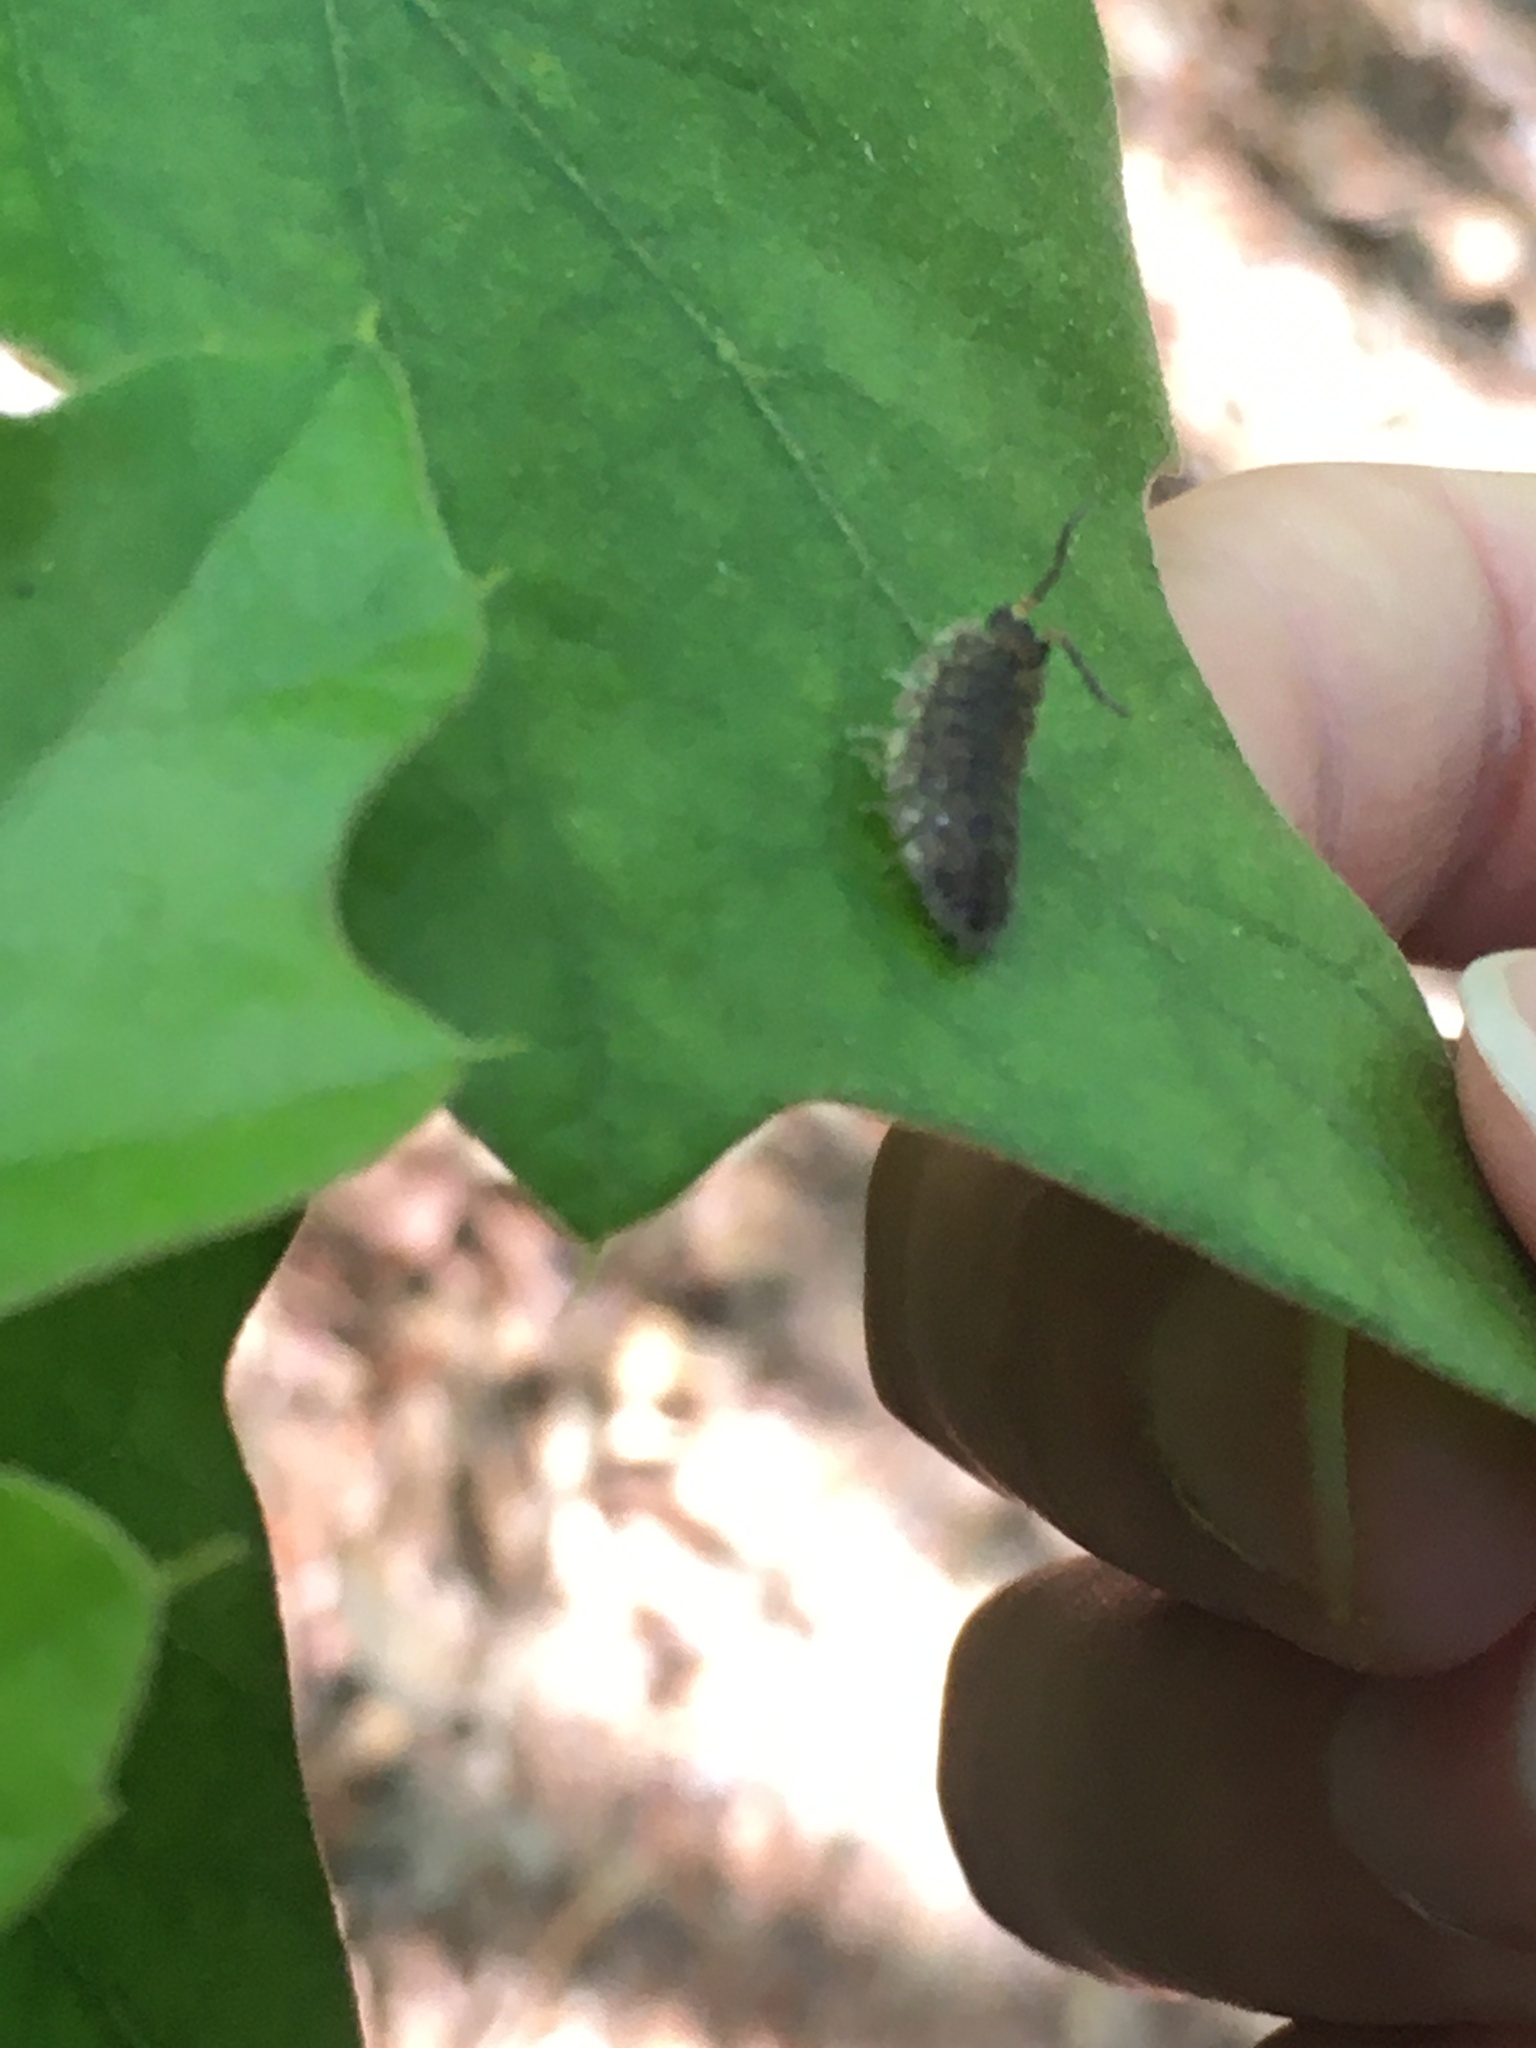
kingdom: Animalia
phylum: Arthropoda
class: Malacostraca
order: Isopoda
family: Porcellionidae
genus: Porcellio
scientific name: Porcellio scaber
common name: Common rough woodlouse
